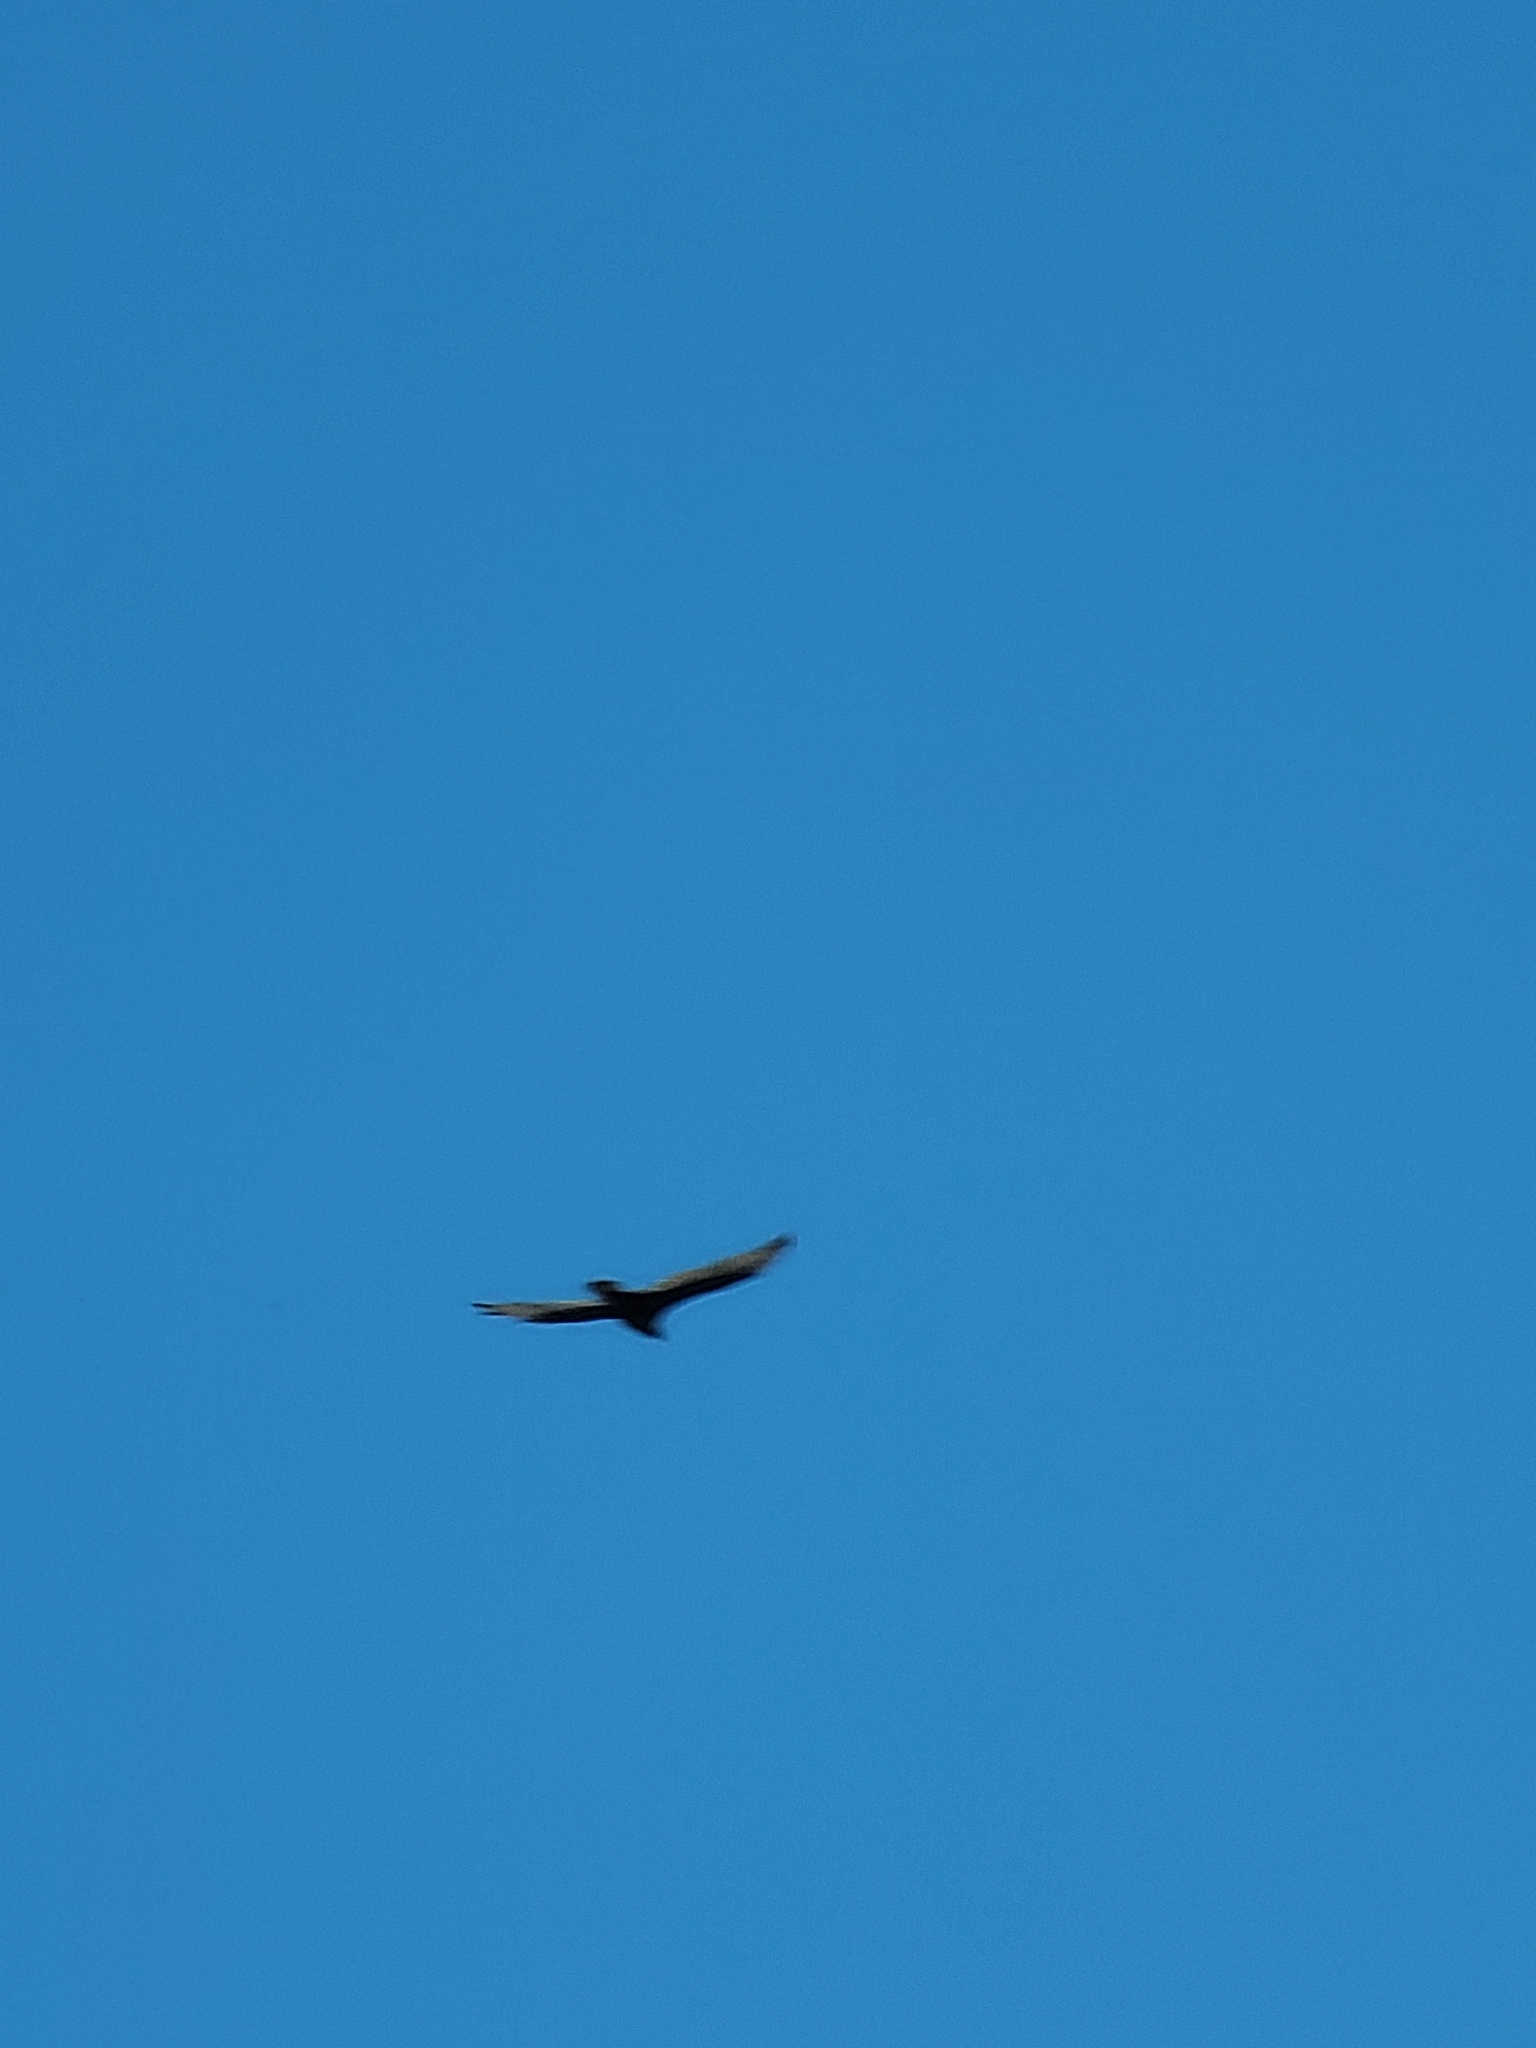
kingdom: Animalia
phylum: Chordata
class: Aves
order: Accipitriformes
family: Cathartidae
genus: Cathartes
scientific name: Cathartes aura
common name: Turkey vulture
